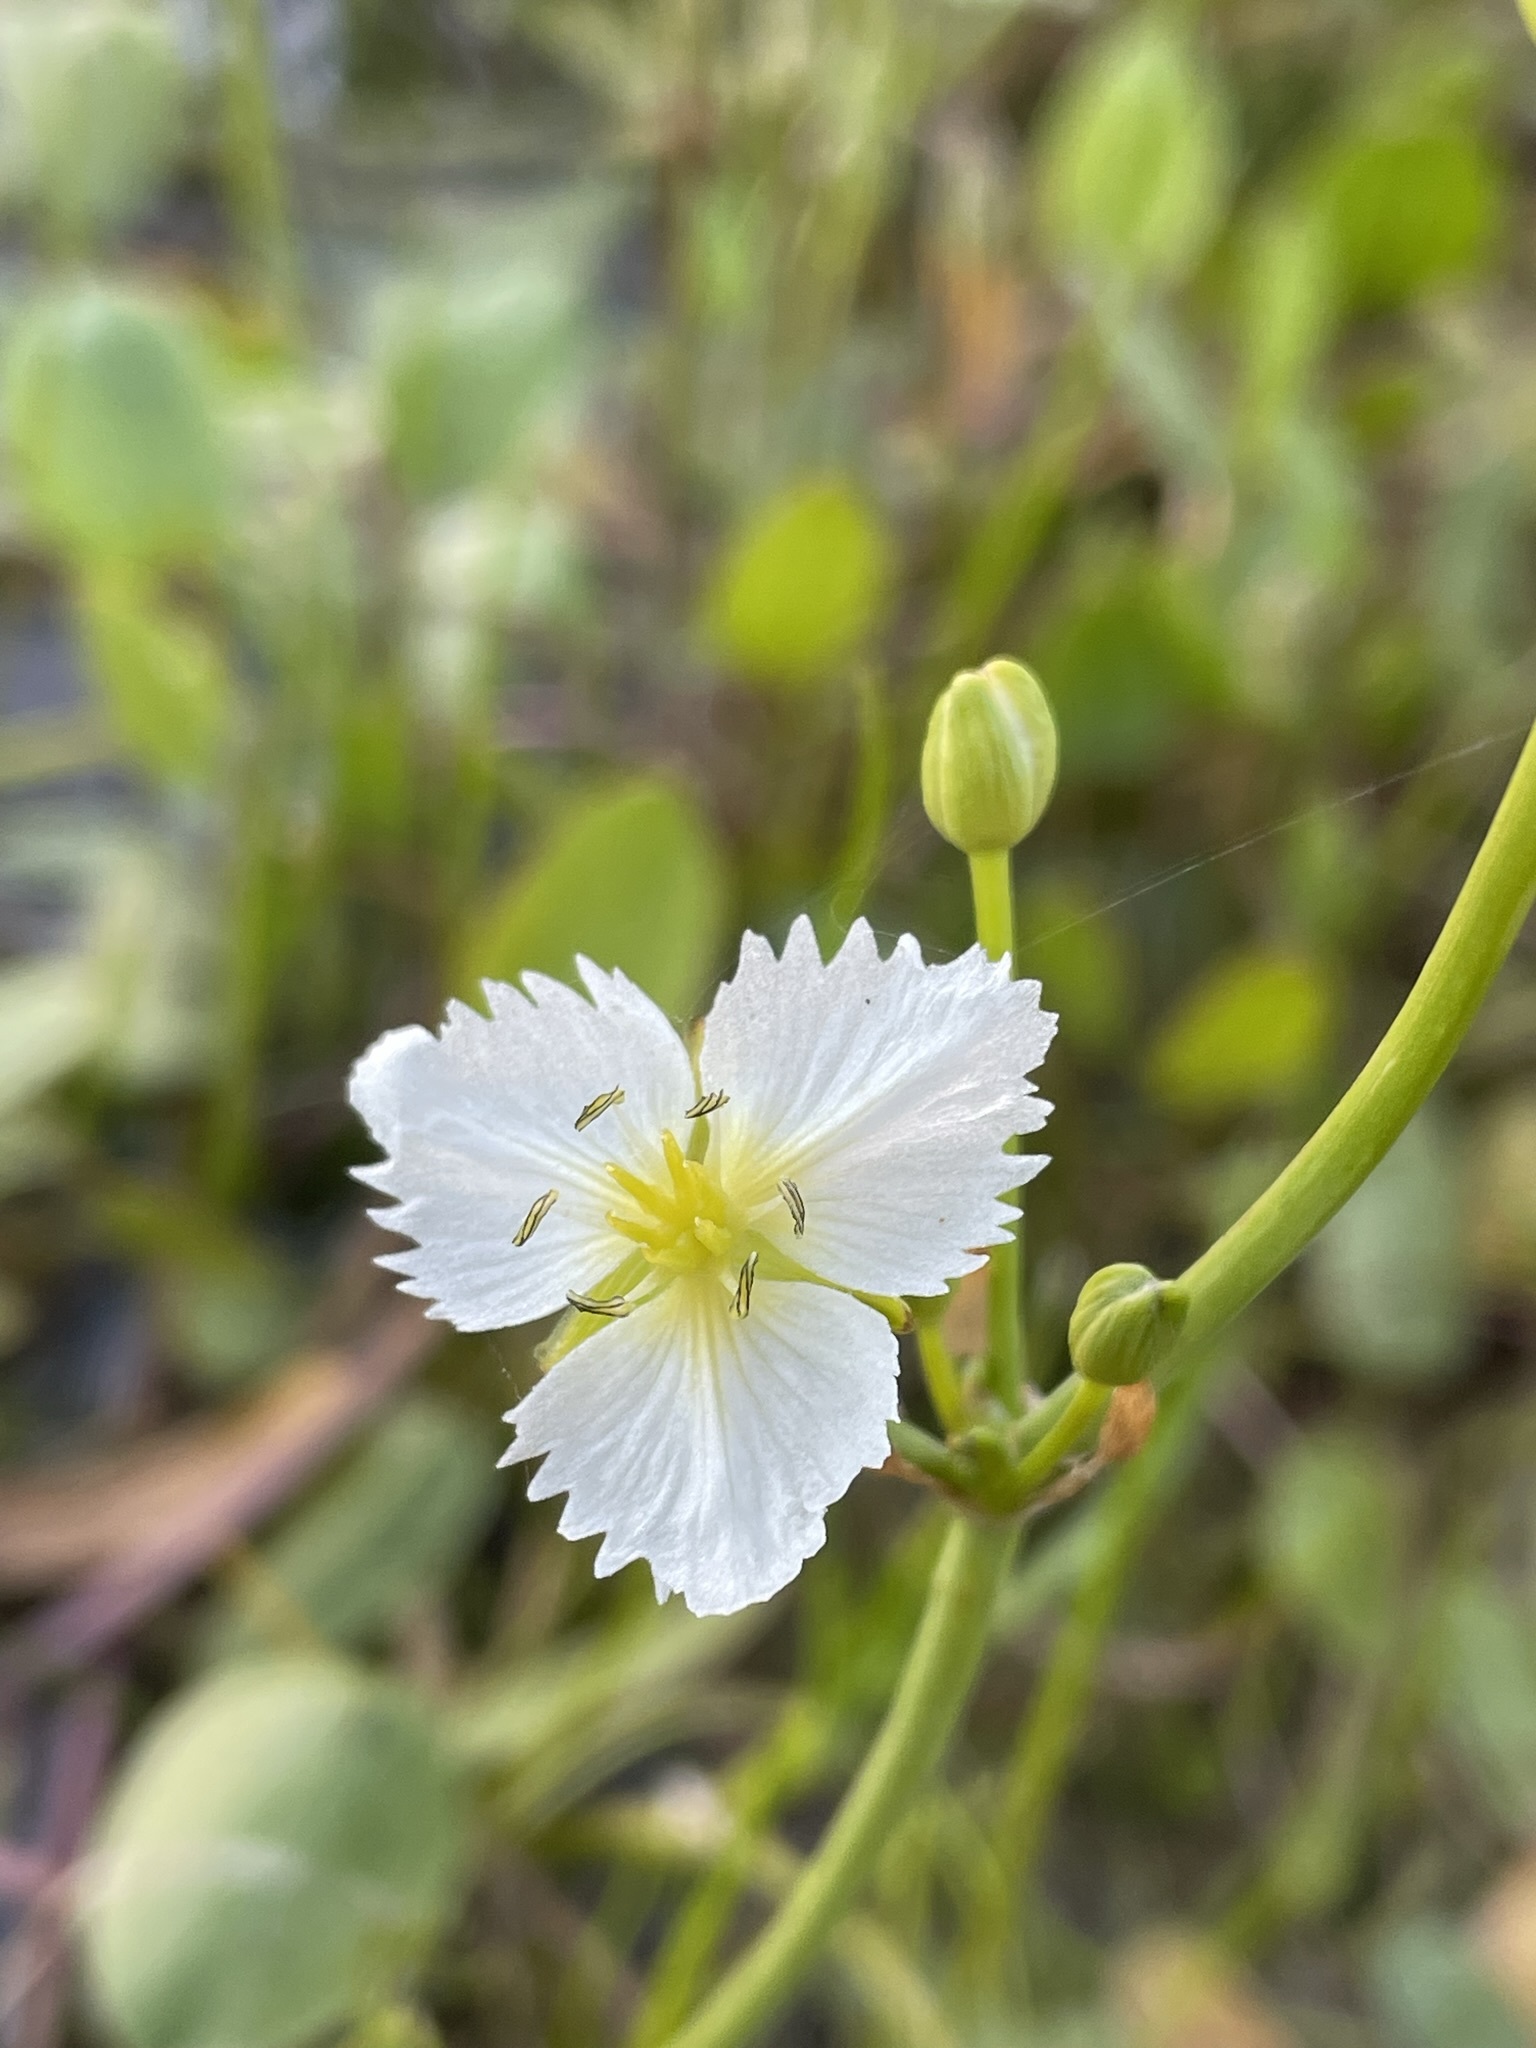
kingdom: Plantae
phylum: Tracheophyta
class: Liliopsida
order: Alismatales
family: Alismataceae
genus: Damasonium
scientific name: Damasonium californicum
